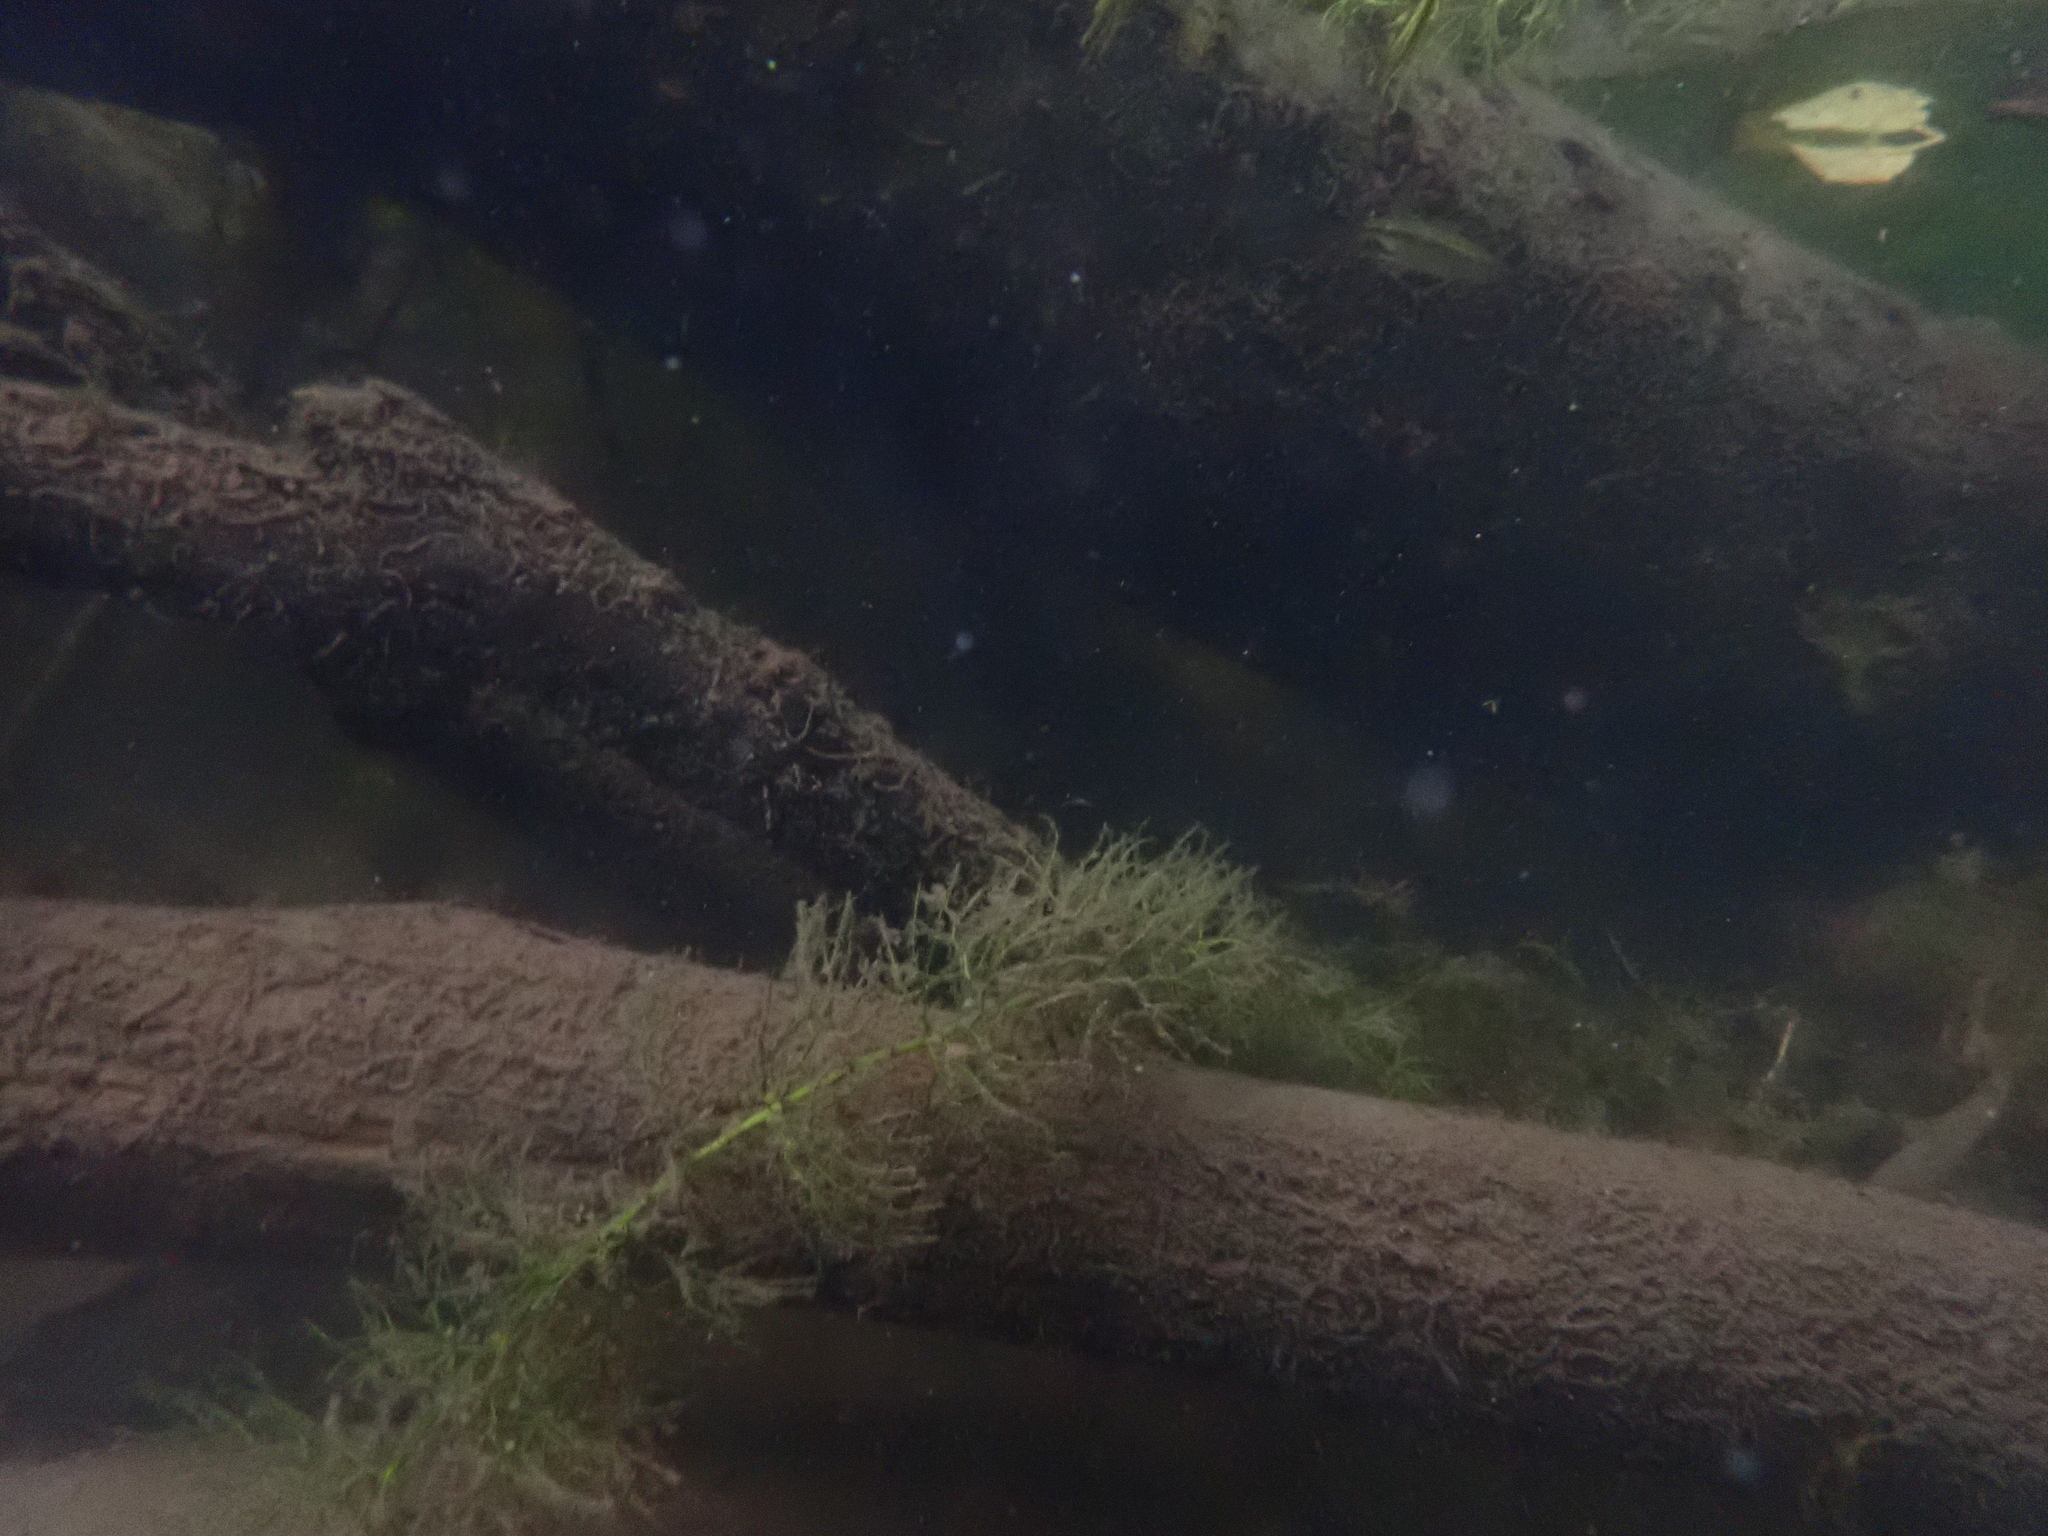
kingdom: Plantae
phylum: Tracheophyta
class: Magnoliopsida
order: Lamiales
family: Lentibulariaceae
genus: Utricularia
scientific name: Utricularia macrorhiza
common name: Common bladderwort
